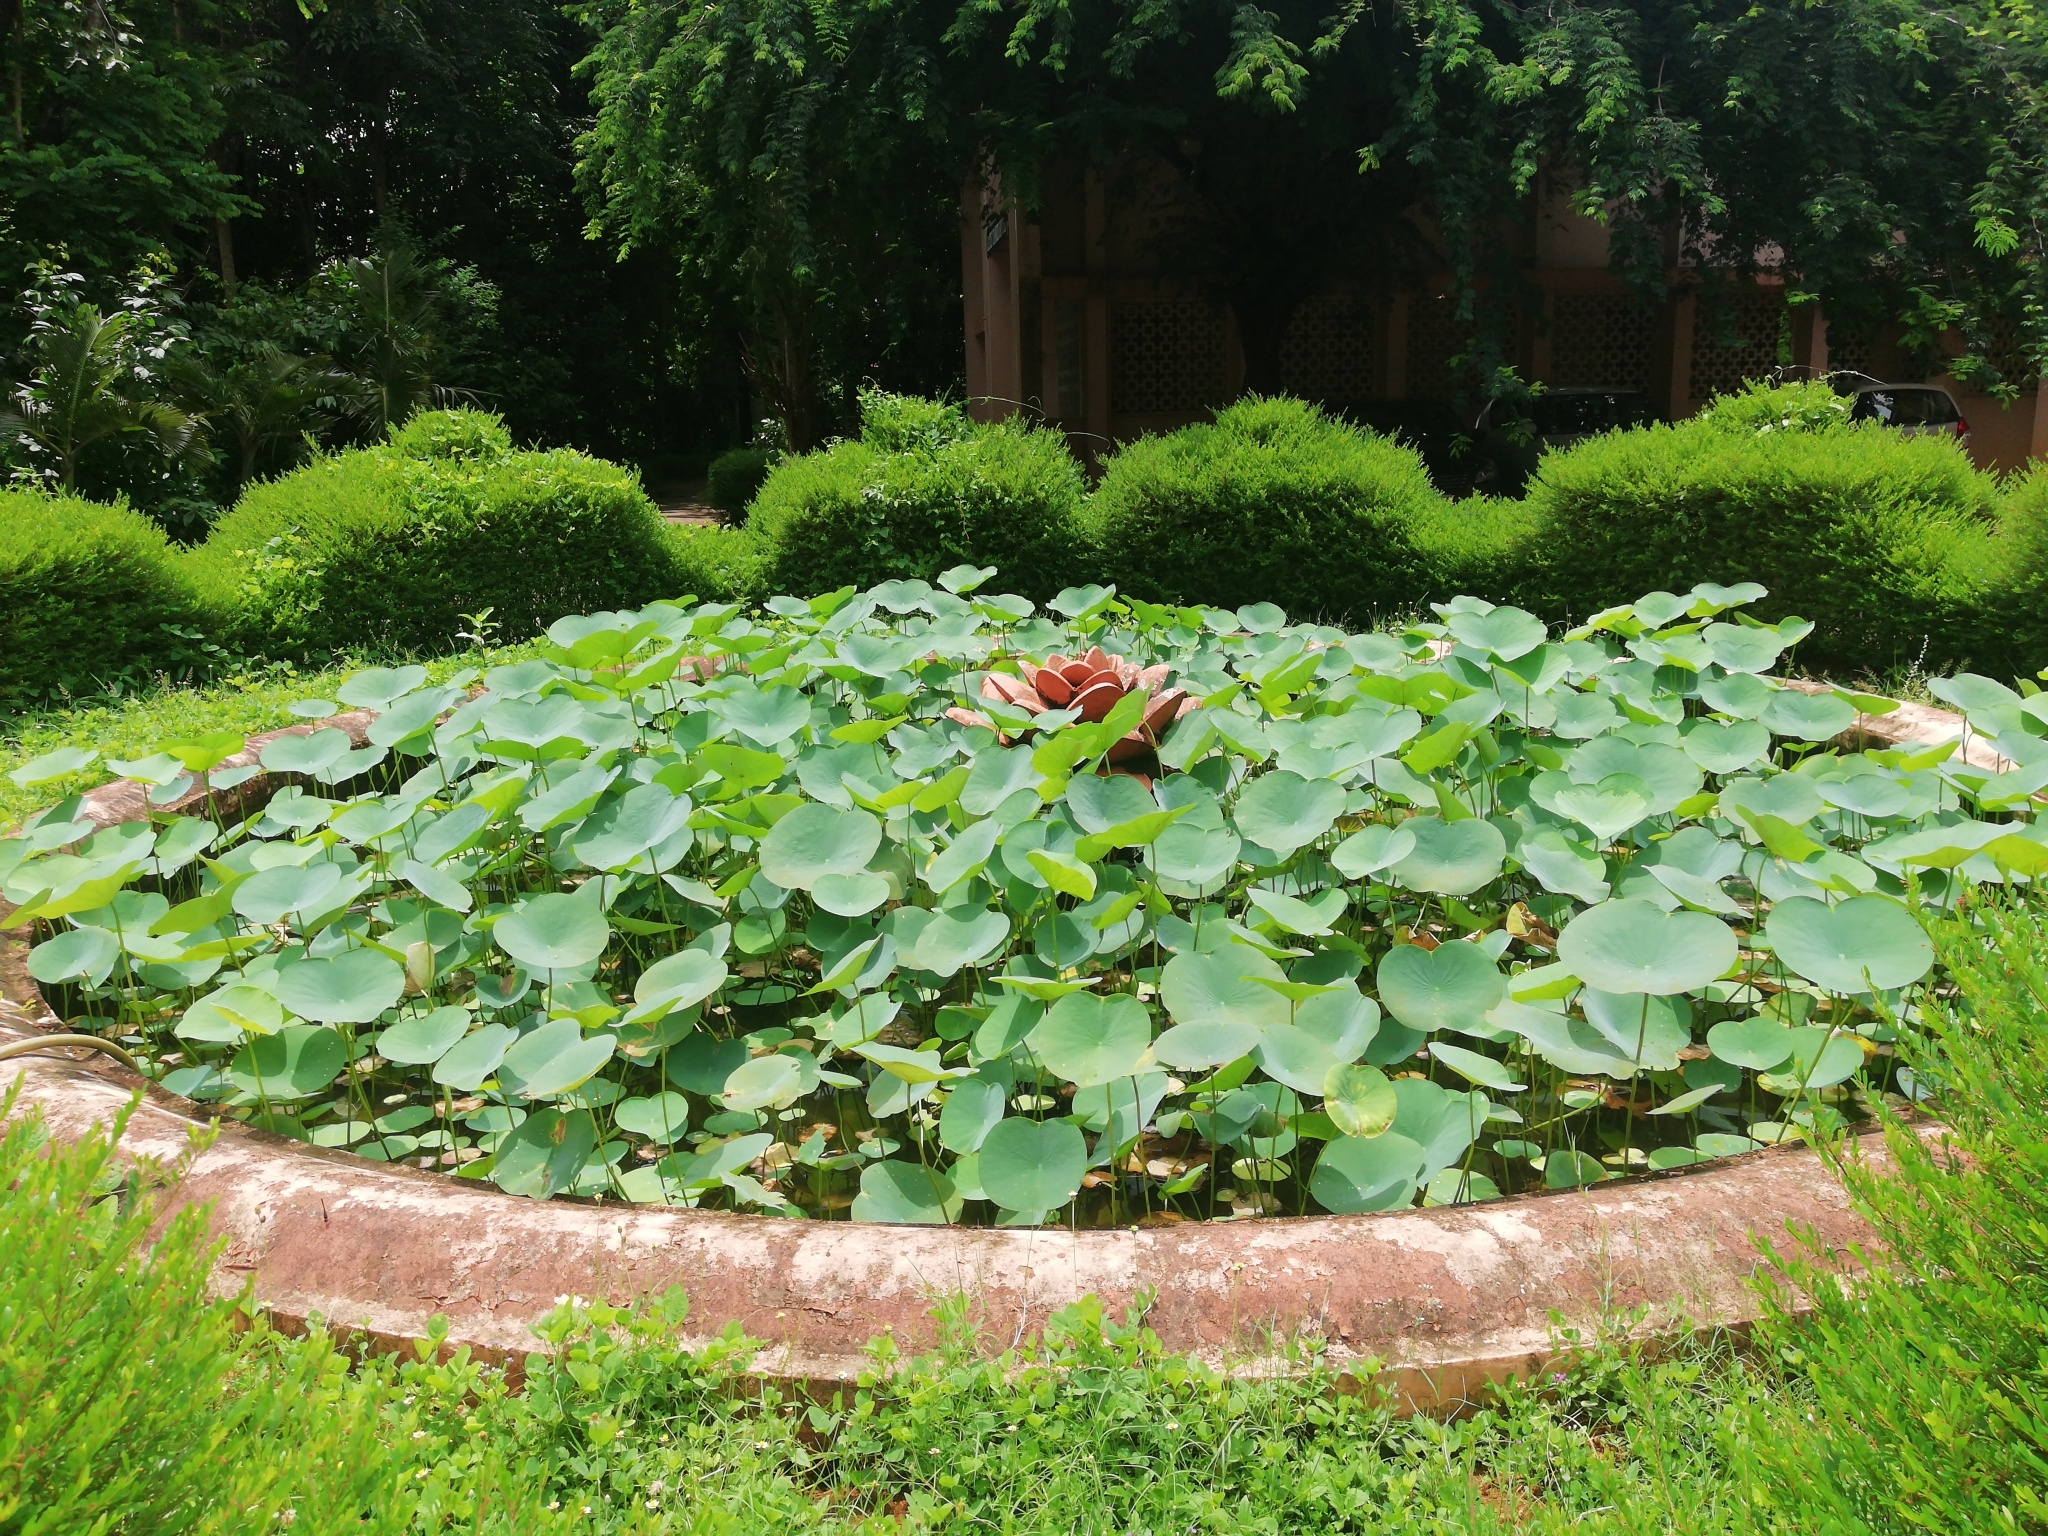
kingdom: Plantae
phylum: Tracheophyta
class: Magnoliopsida
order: Proteales
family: Nelumbonaceae
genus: Nelumbo
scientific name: Nelumbo nucifera
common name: Sacred lotus
